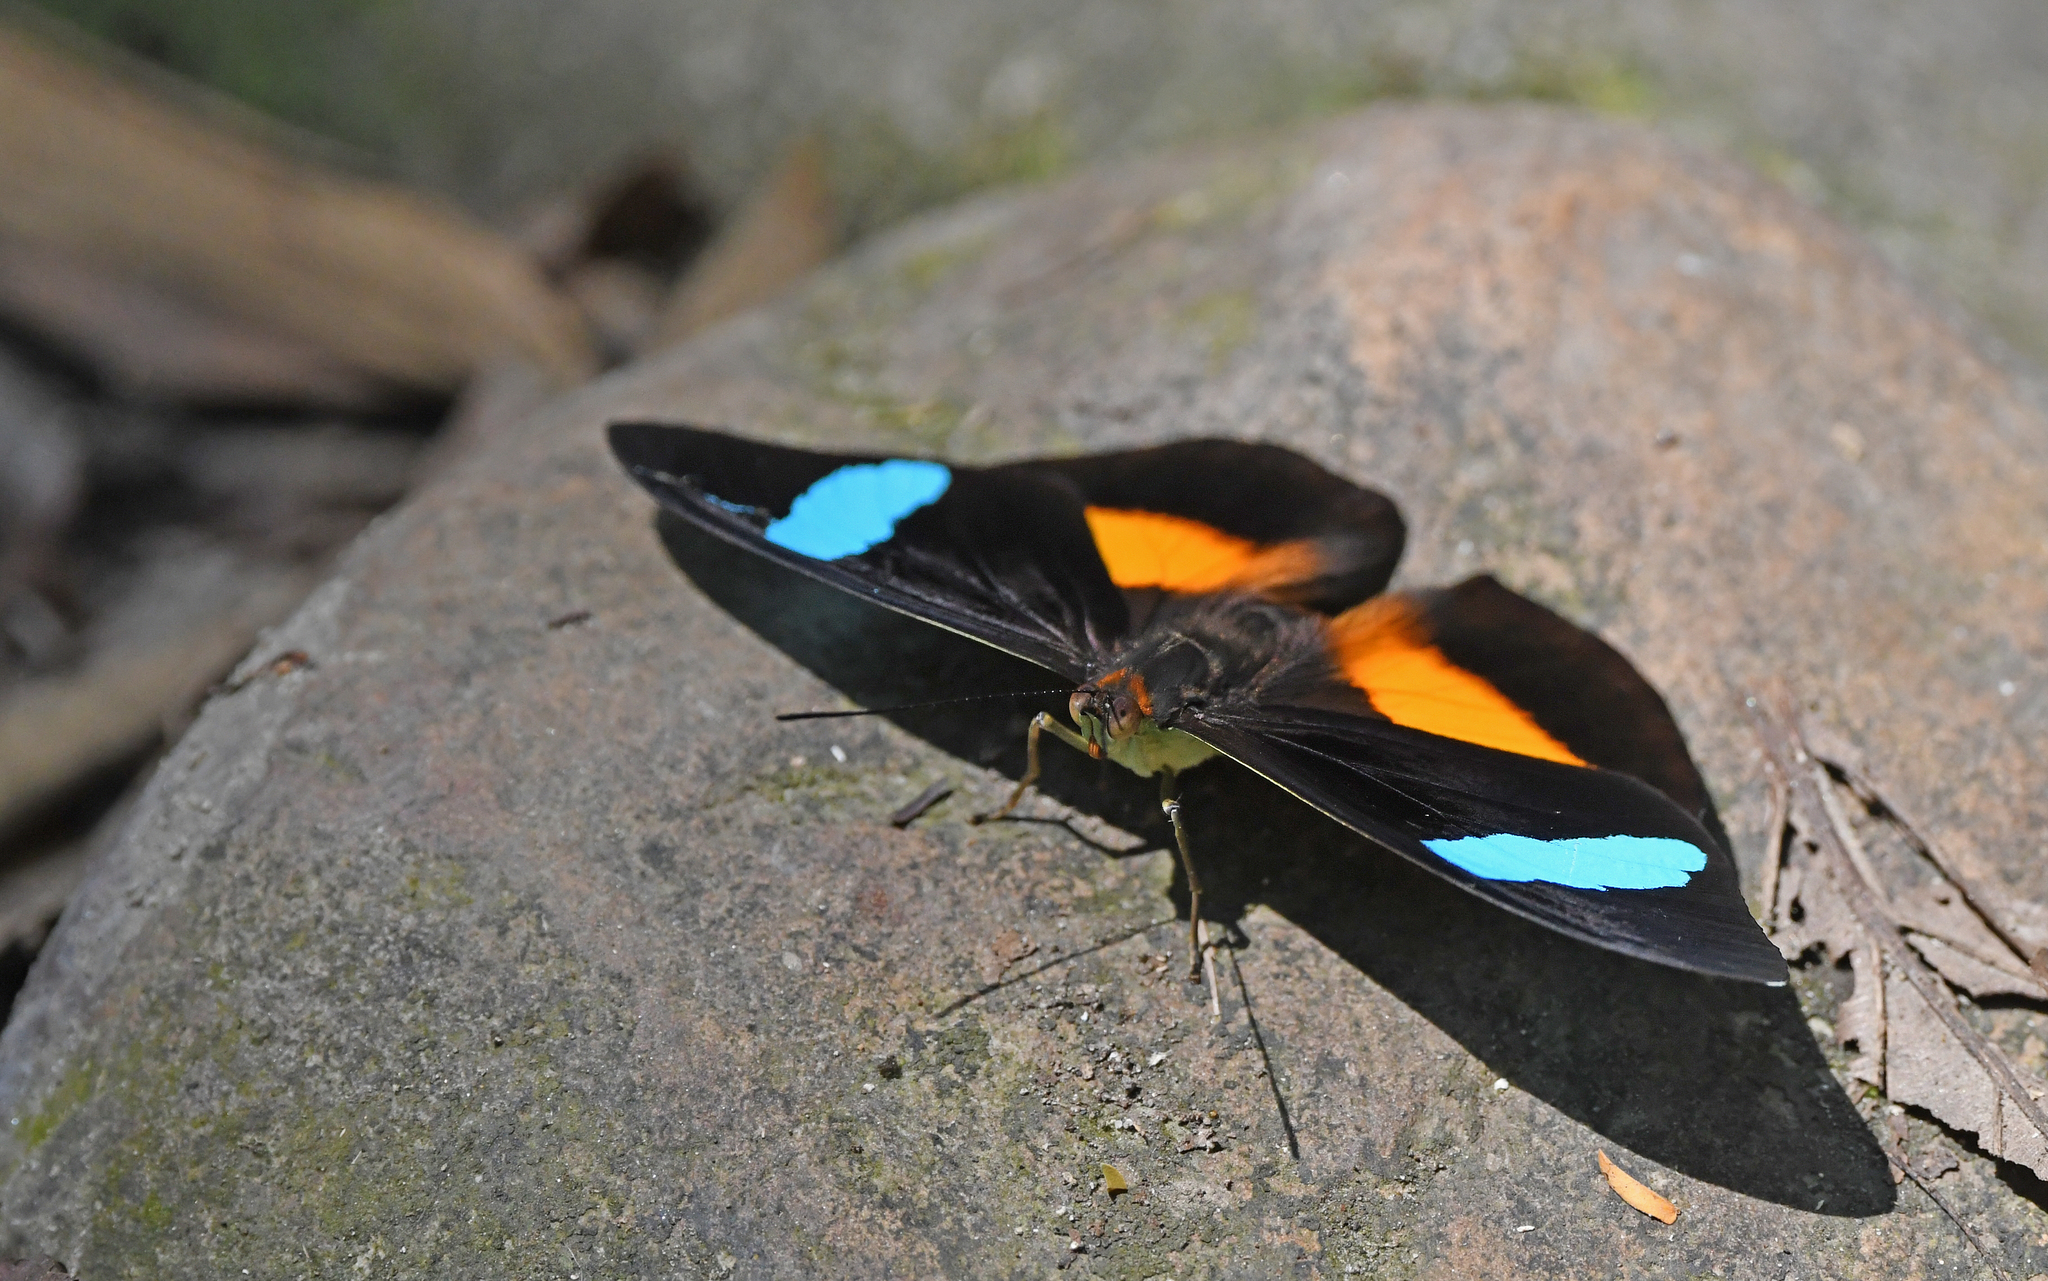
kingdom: Animalia
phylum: Arthropoda
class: Insecta
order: Lepidoptera
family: Nymphalidae
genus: Nessaea
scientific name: Nessaea obrinus
